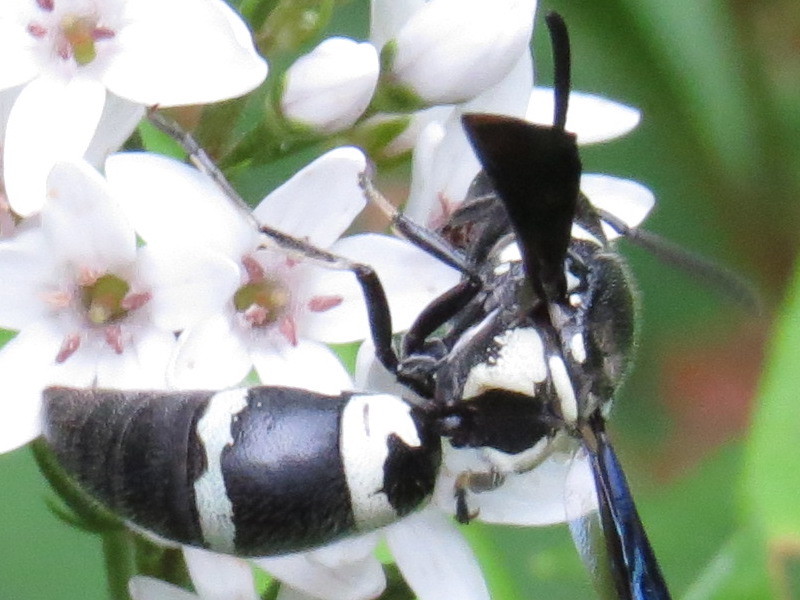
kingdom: Animalia
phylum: Arthropoda
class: Insecta
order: Hymenoptera
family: Eumenidae
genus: Pseudodynerus
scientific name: Pseudodynerus quadrisectus
